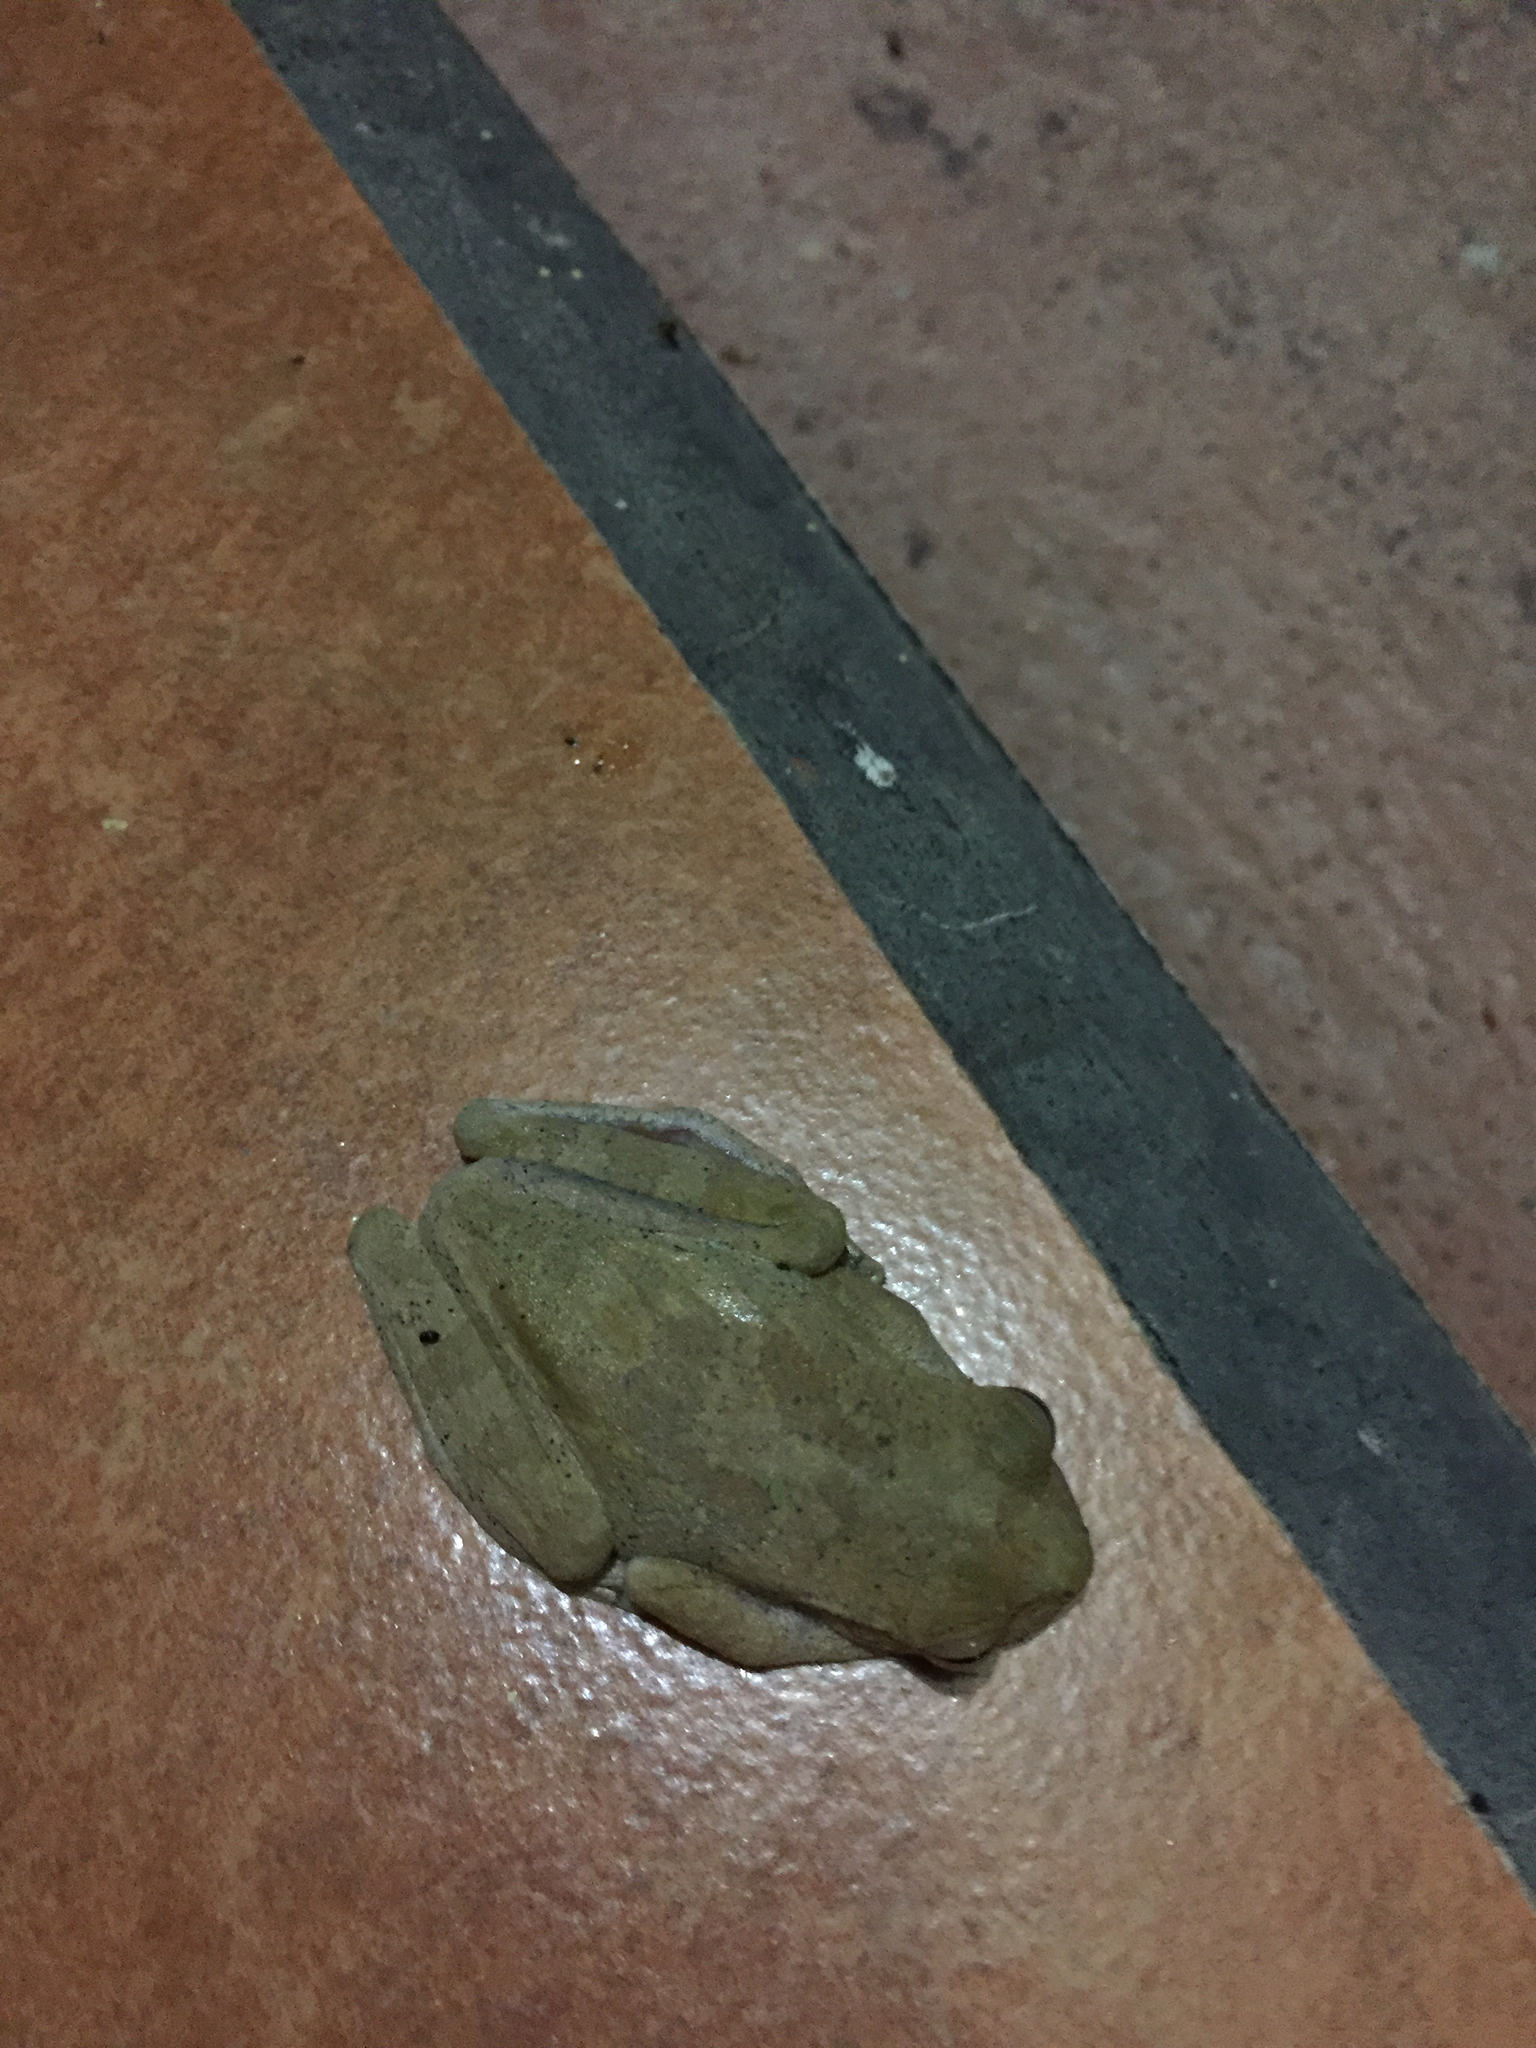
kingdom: Animalia
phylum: Chordata
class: Amphibia
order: Anura
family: Hylidae
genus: Smilisca
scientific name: Smilisca sordida
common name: Veragua cross-banded treefrog
